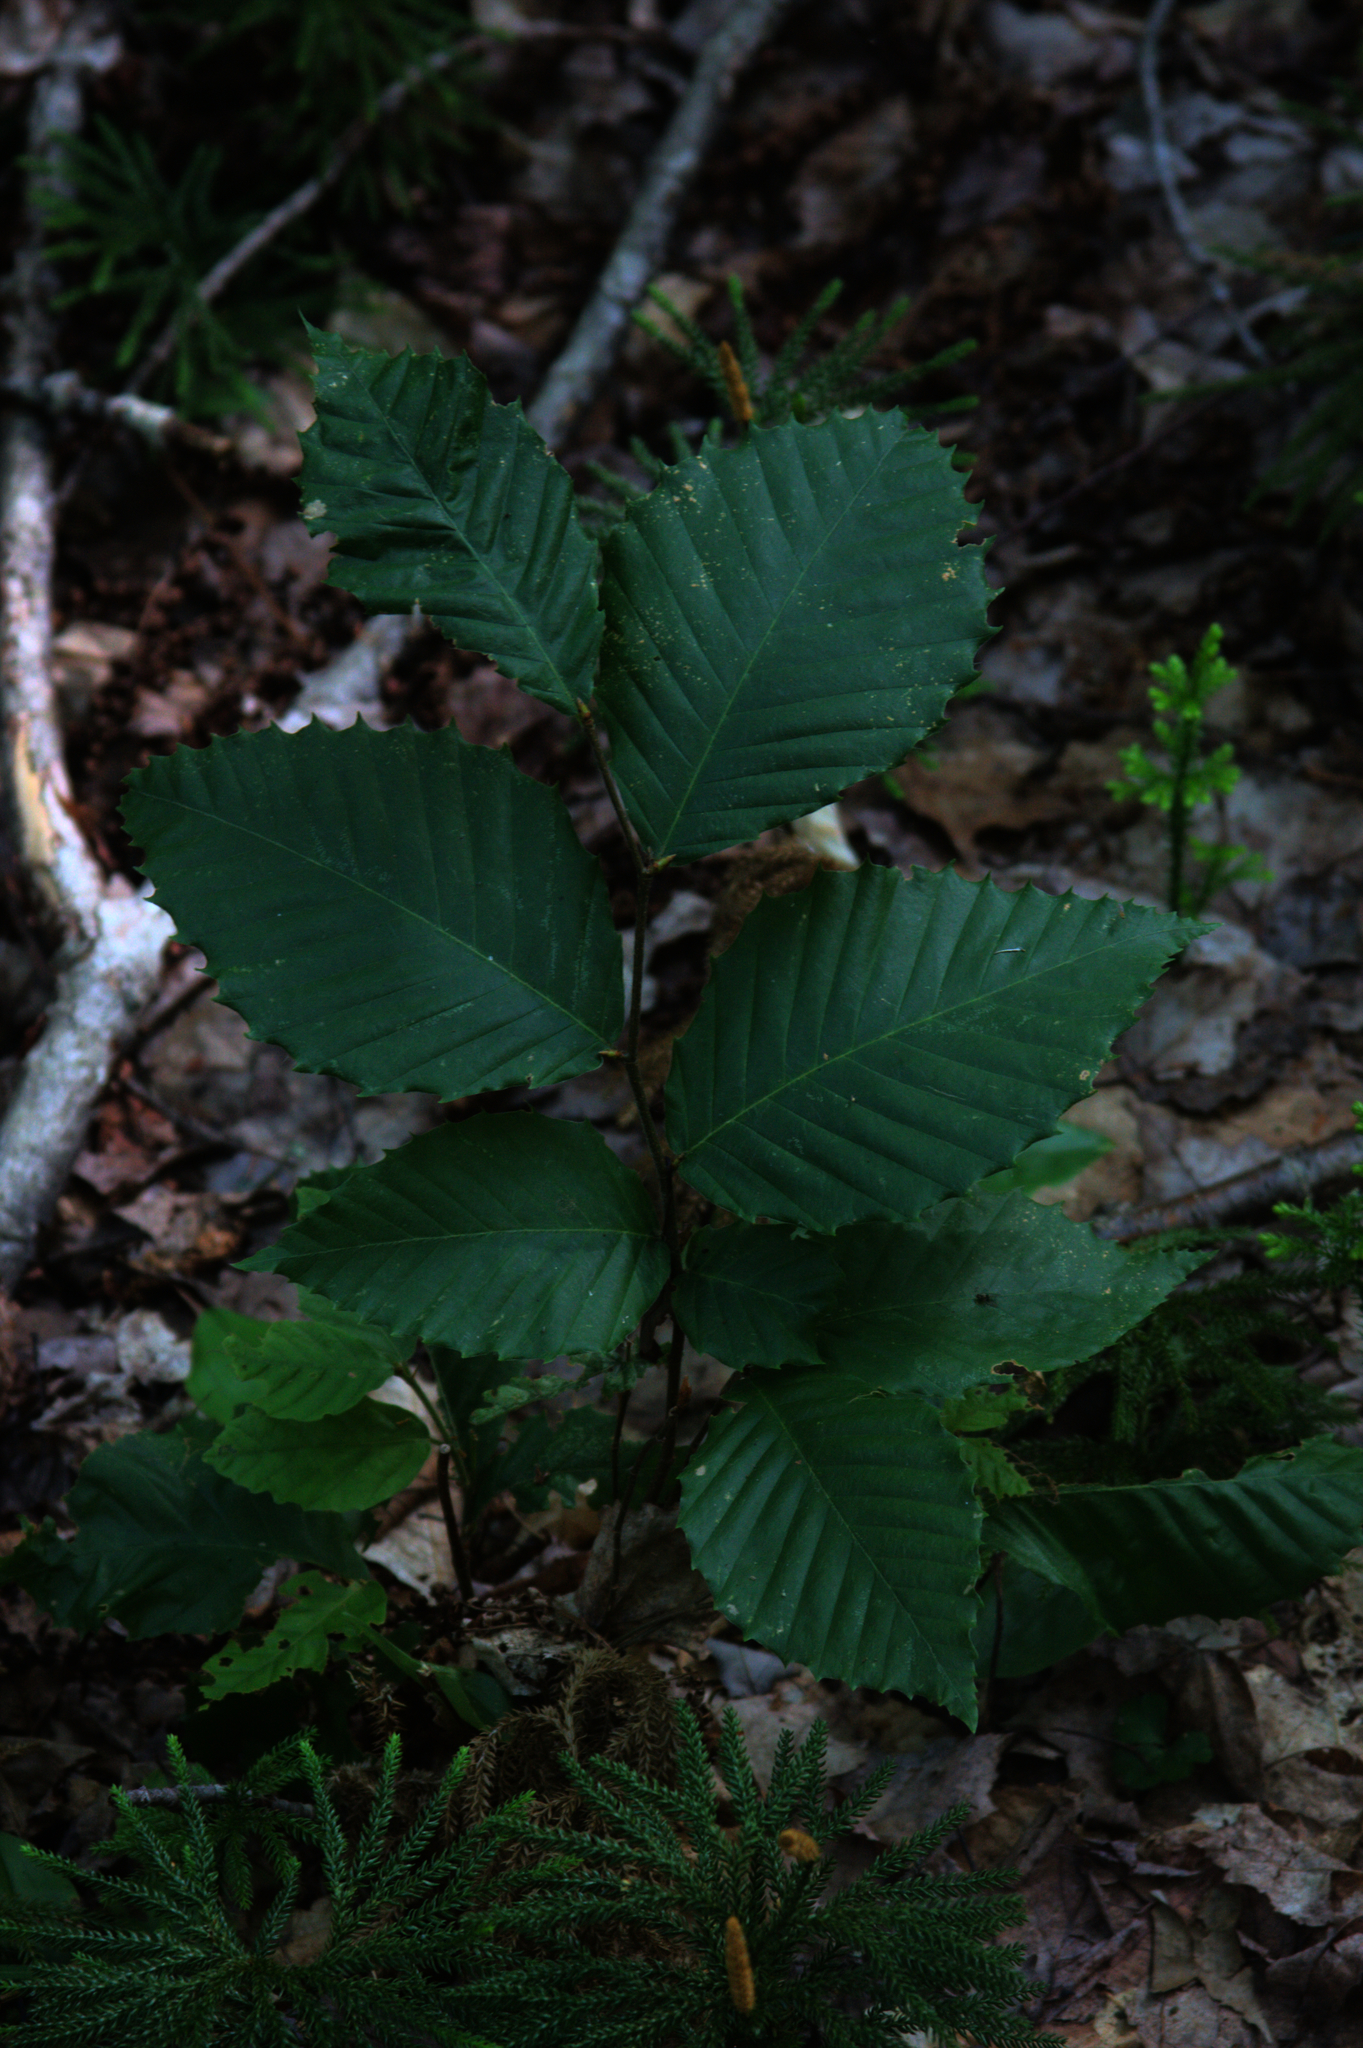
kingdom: Plantae
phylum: Tracheophyta
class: Magnoliopsida
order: Fagales
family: Fagaceae
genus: Fagus
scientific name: Fagus grandifolia
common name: American beech
